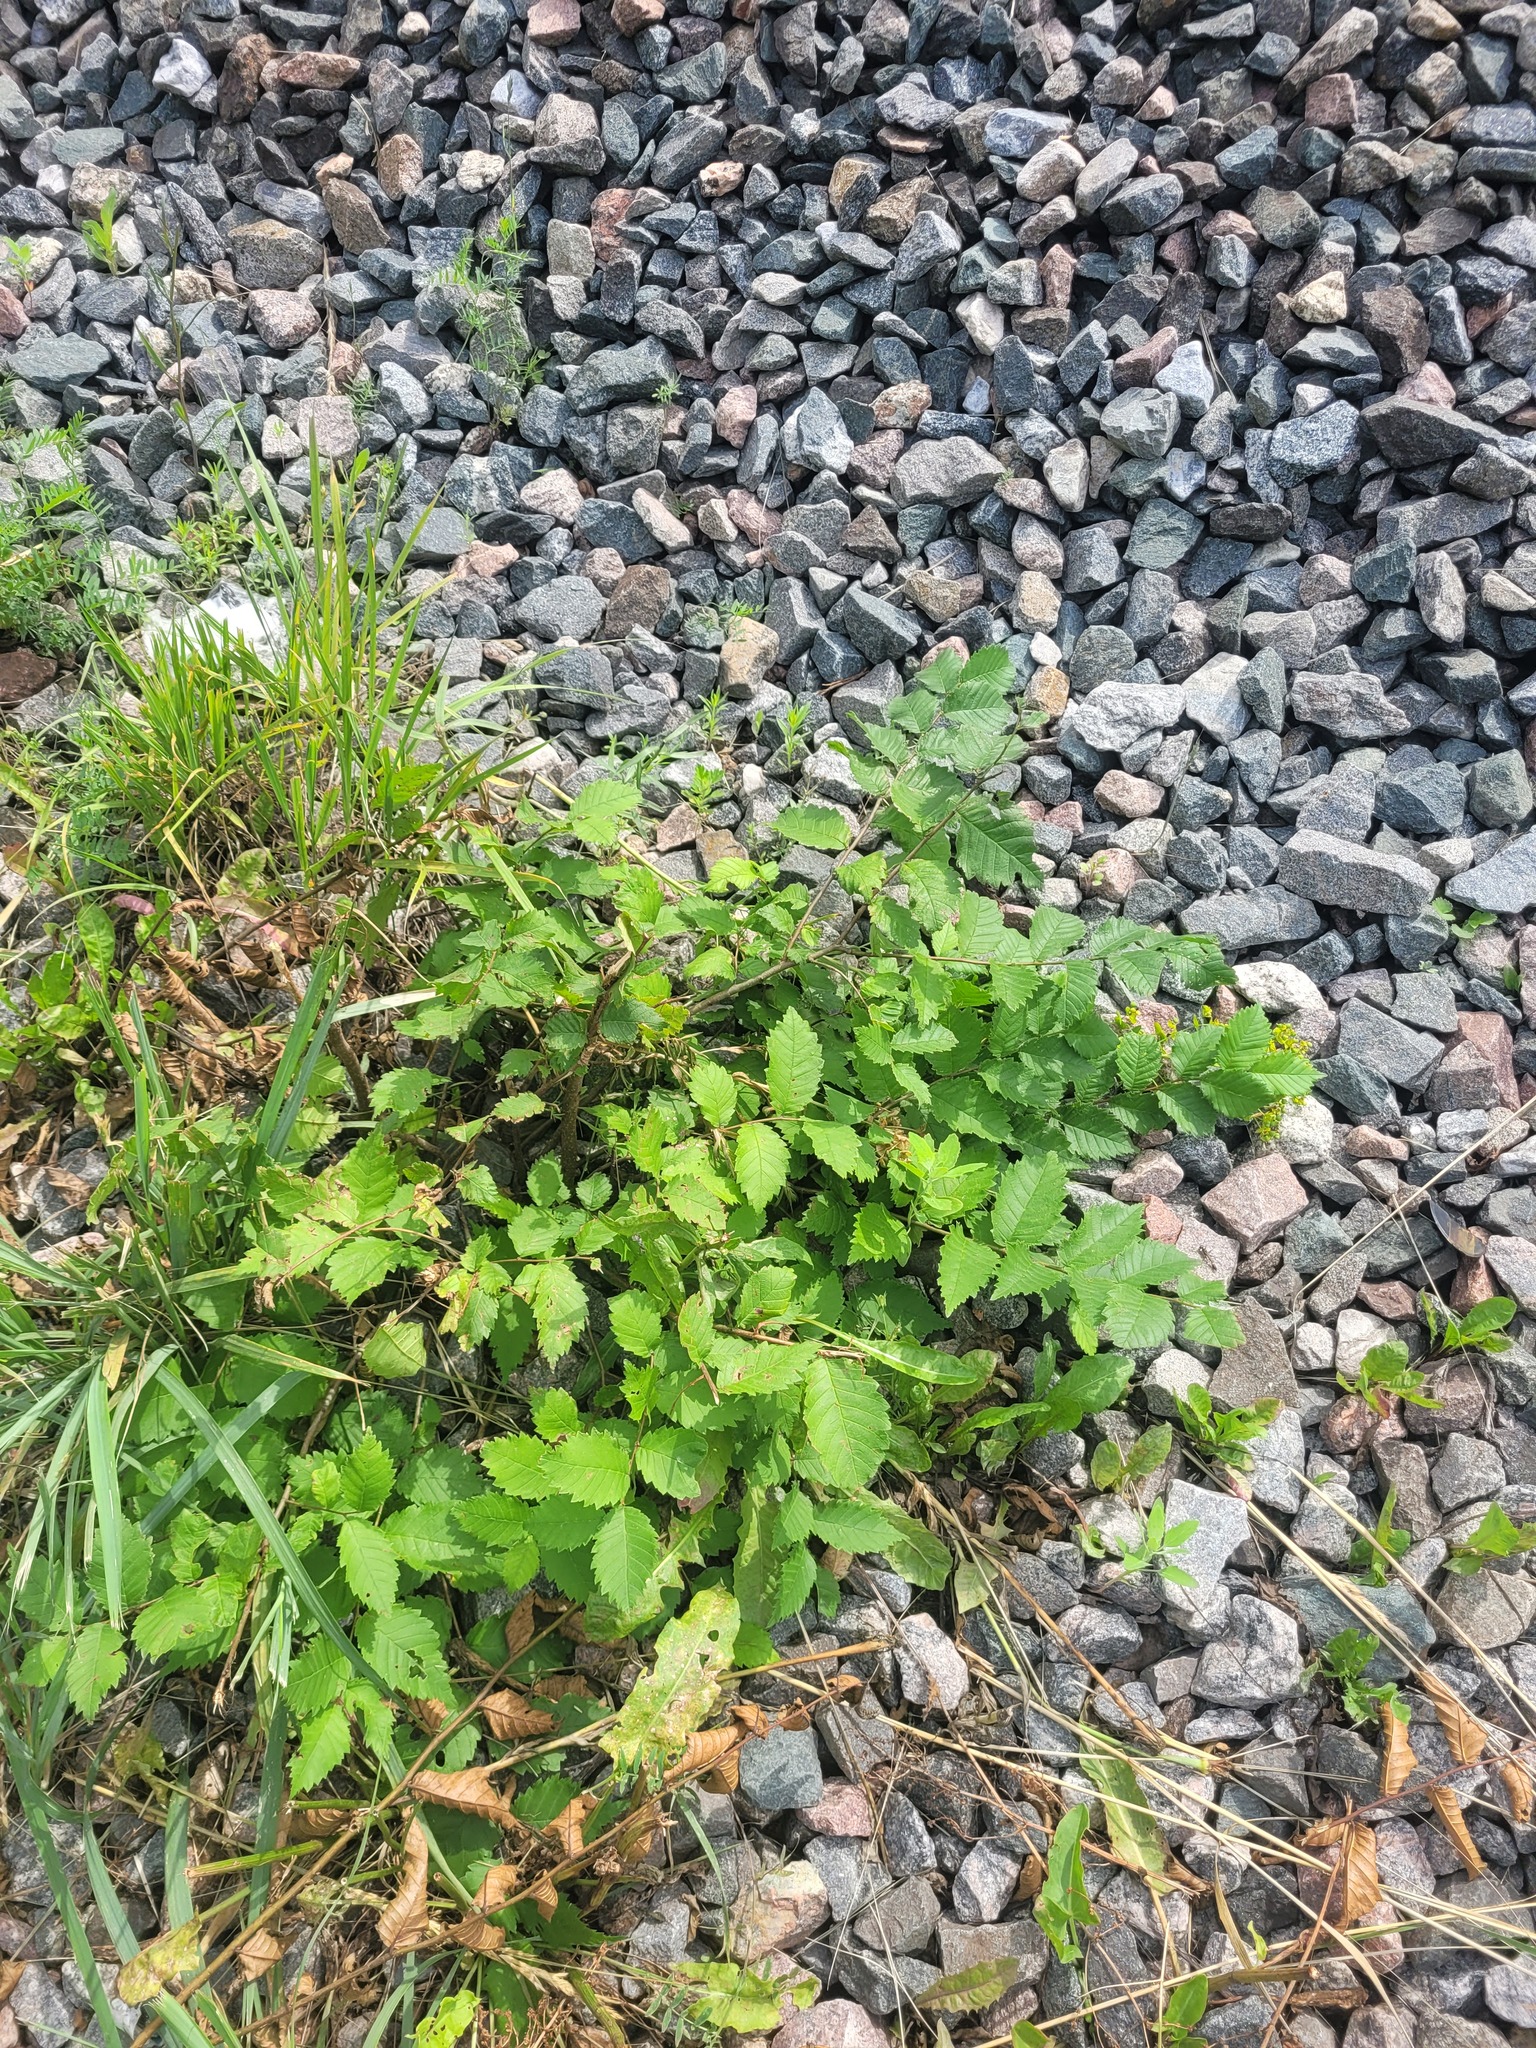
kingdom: Plantae
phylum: Tracheophyta
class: Magnoliopsida
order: Rosales
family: Ulmaceae
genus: Ulmus
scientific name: Ulmus laevis
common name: European white-elm
